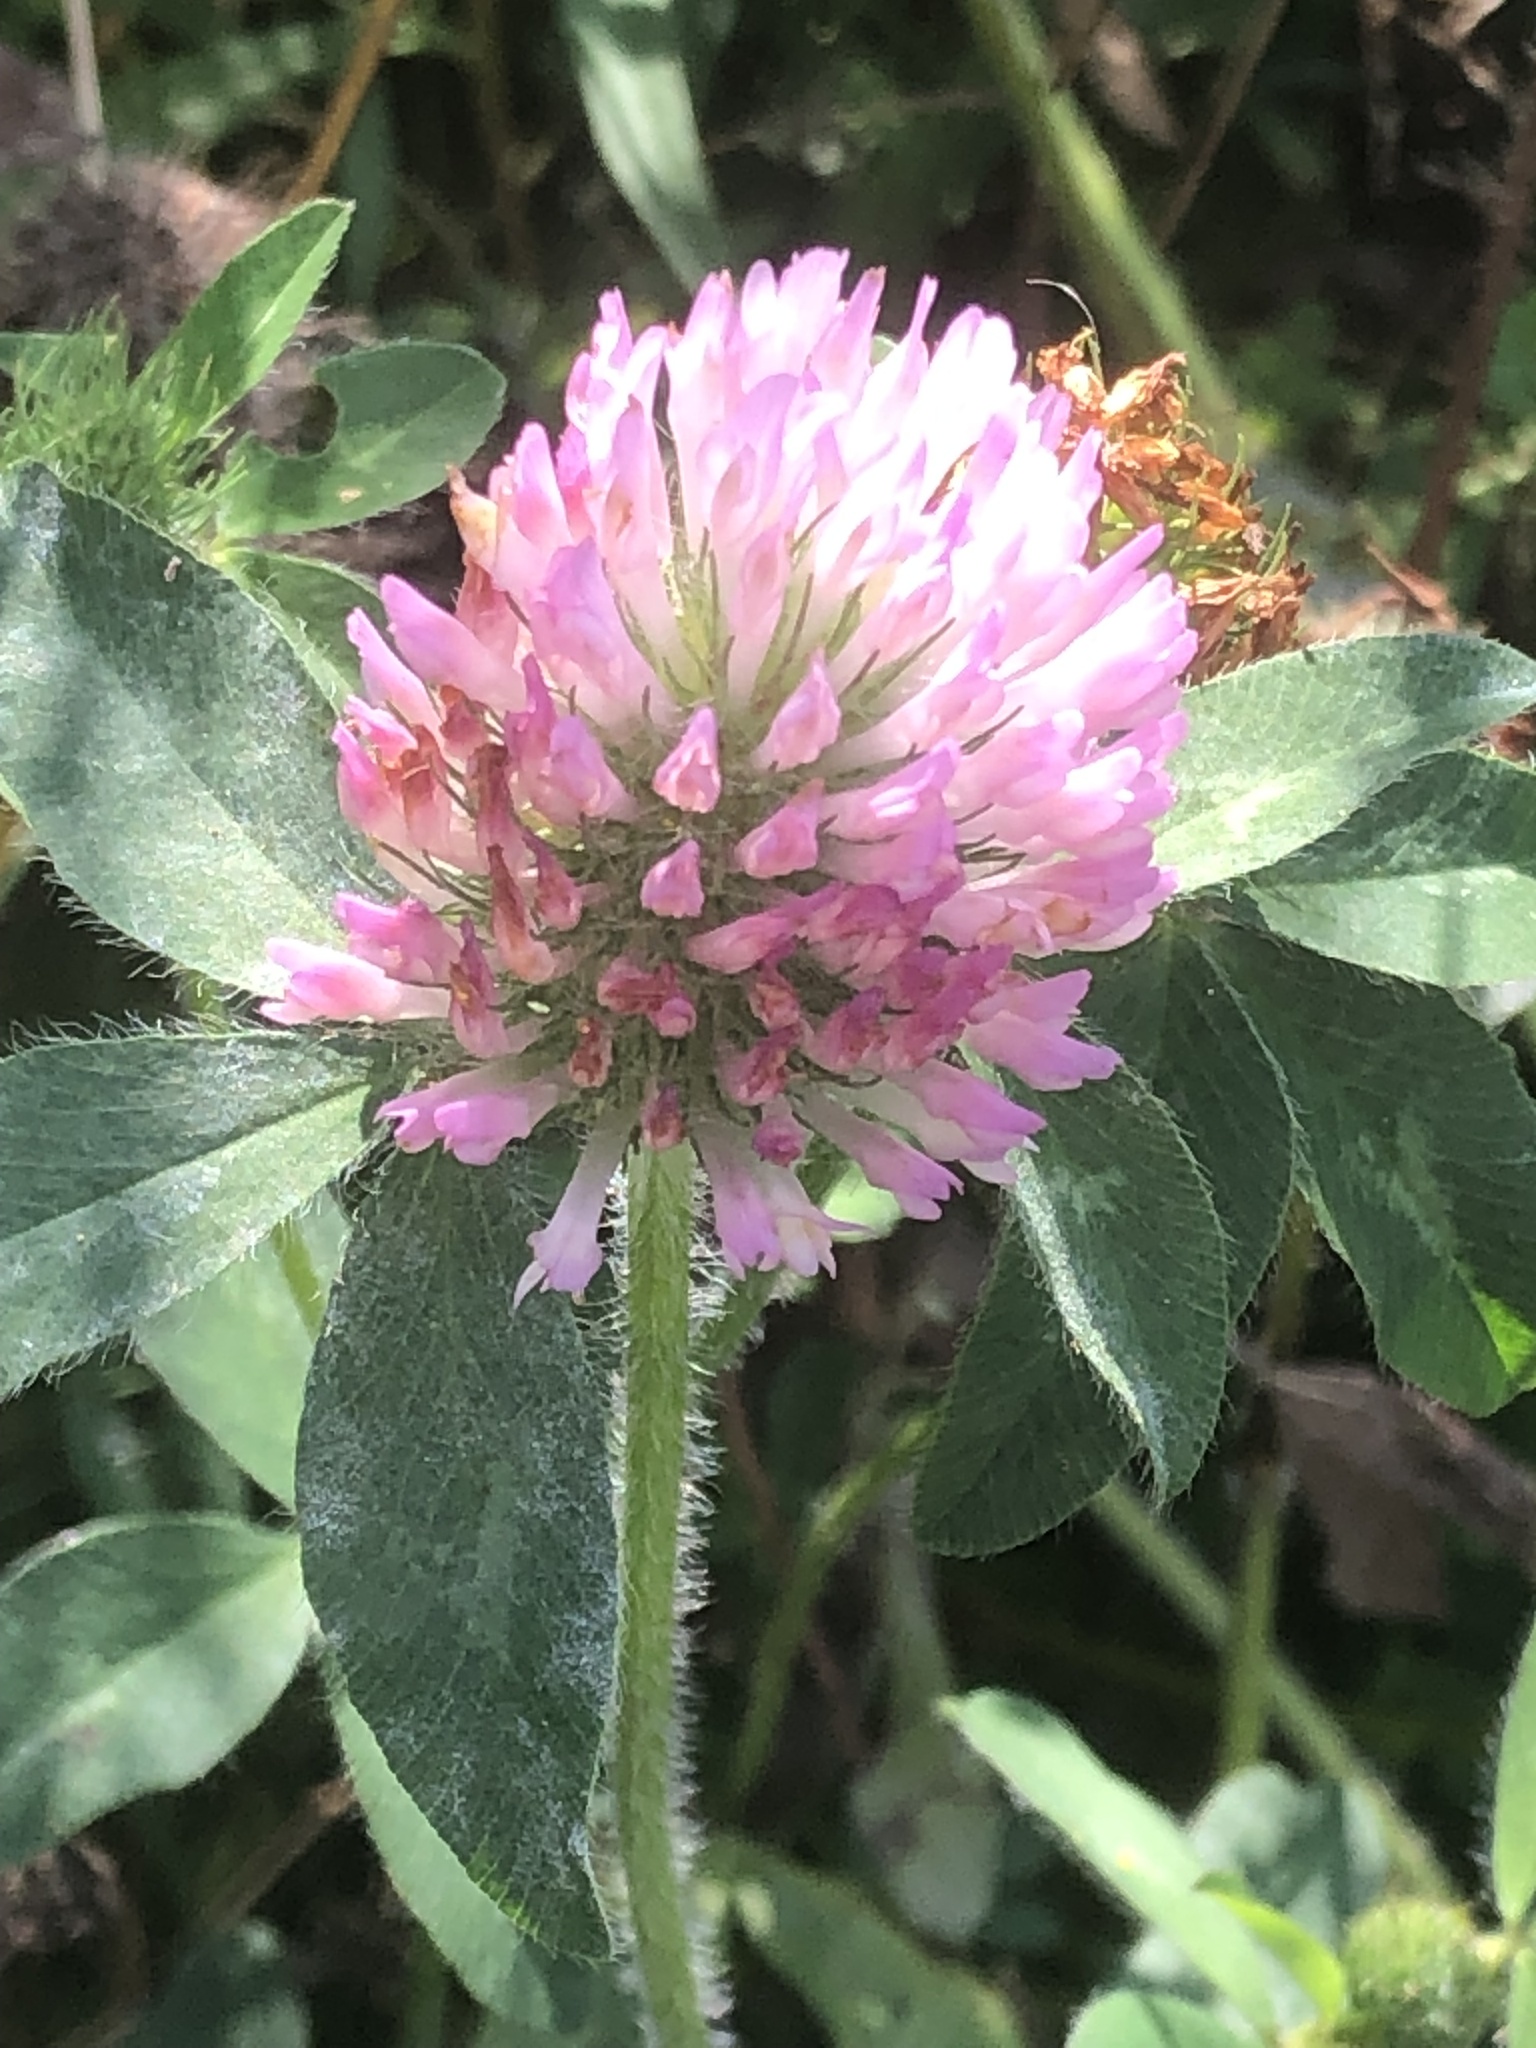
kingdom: Plantae
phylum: Tracheophyta
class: Magnoliopsida
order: Fabales
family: Fabaceae
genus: Trifolium
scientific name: Trifolium pratense
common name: Red clover
